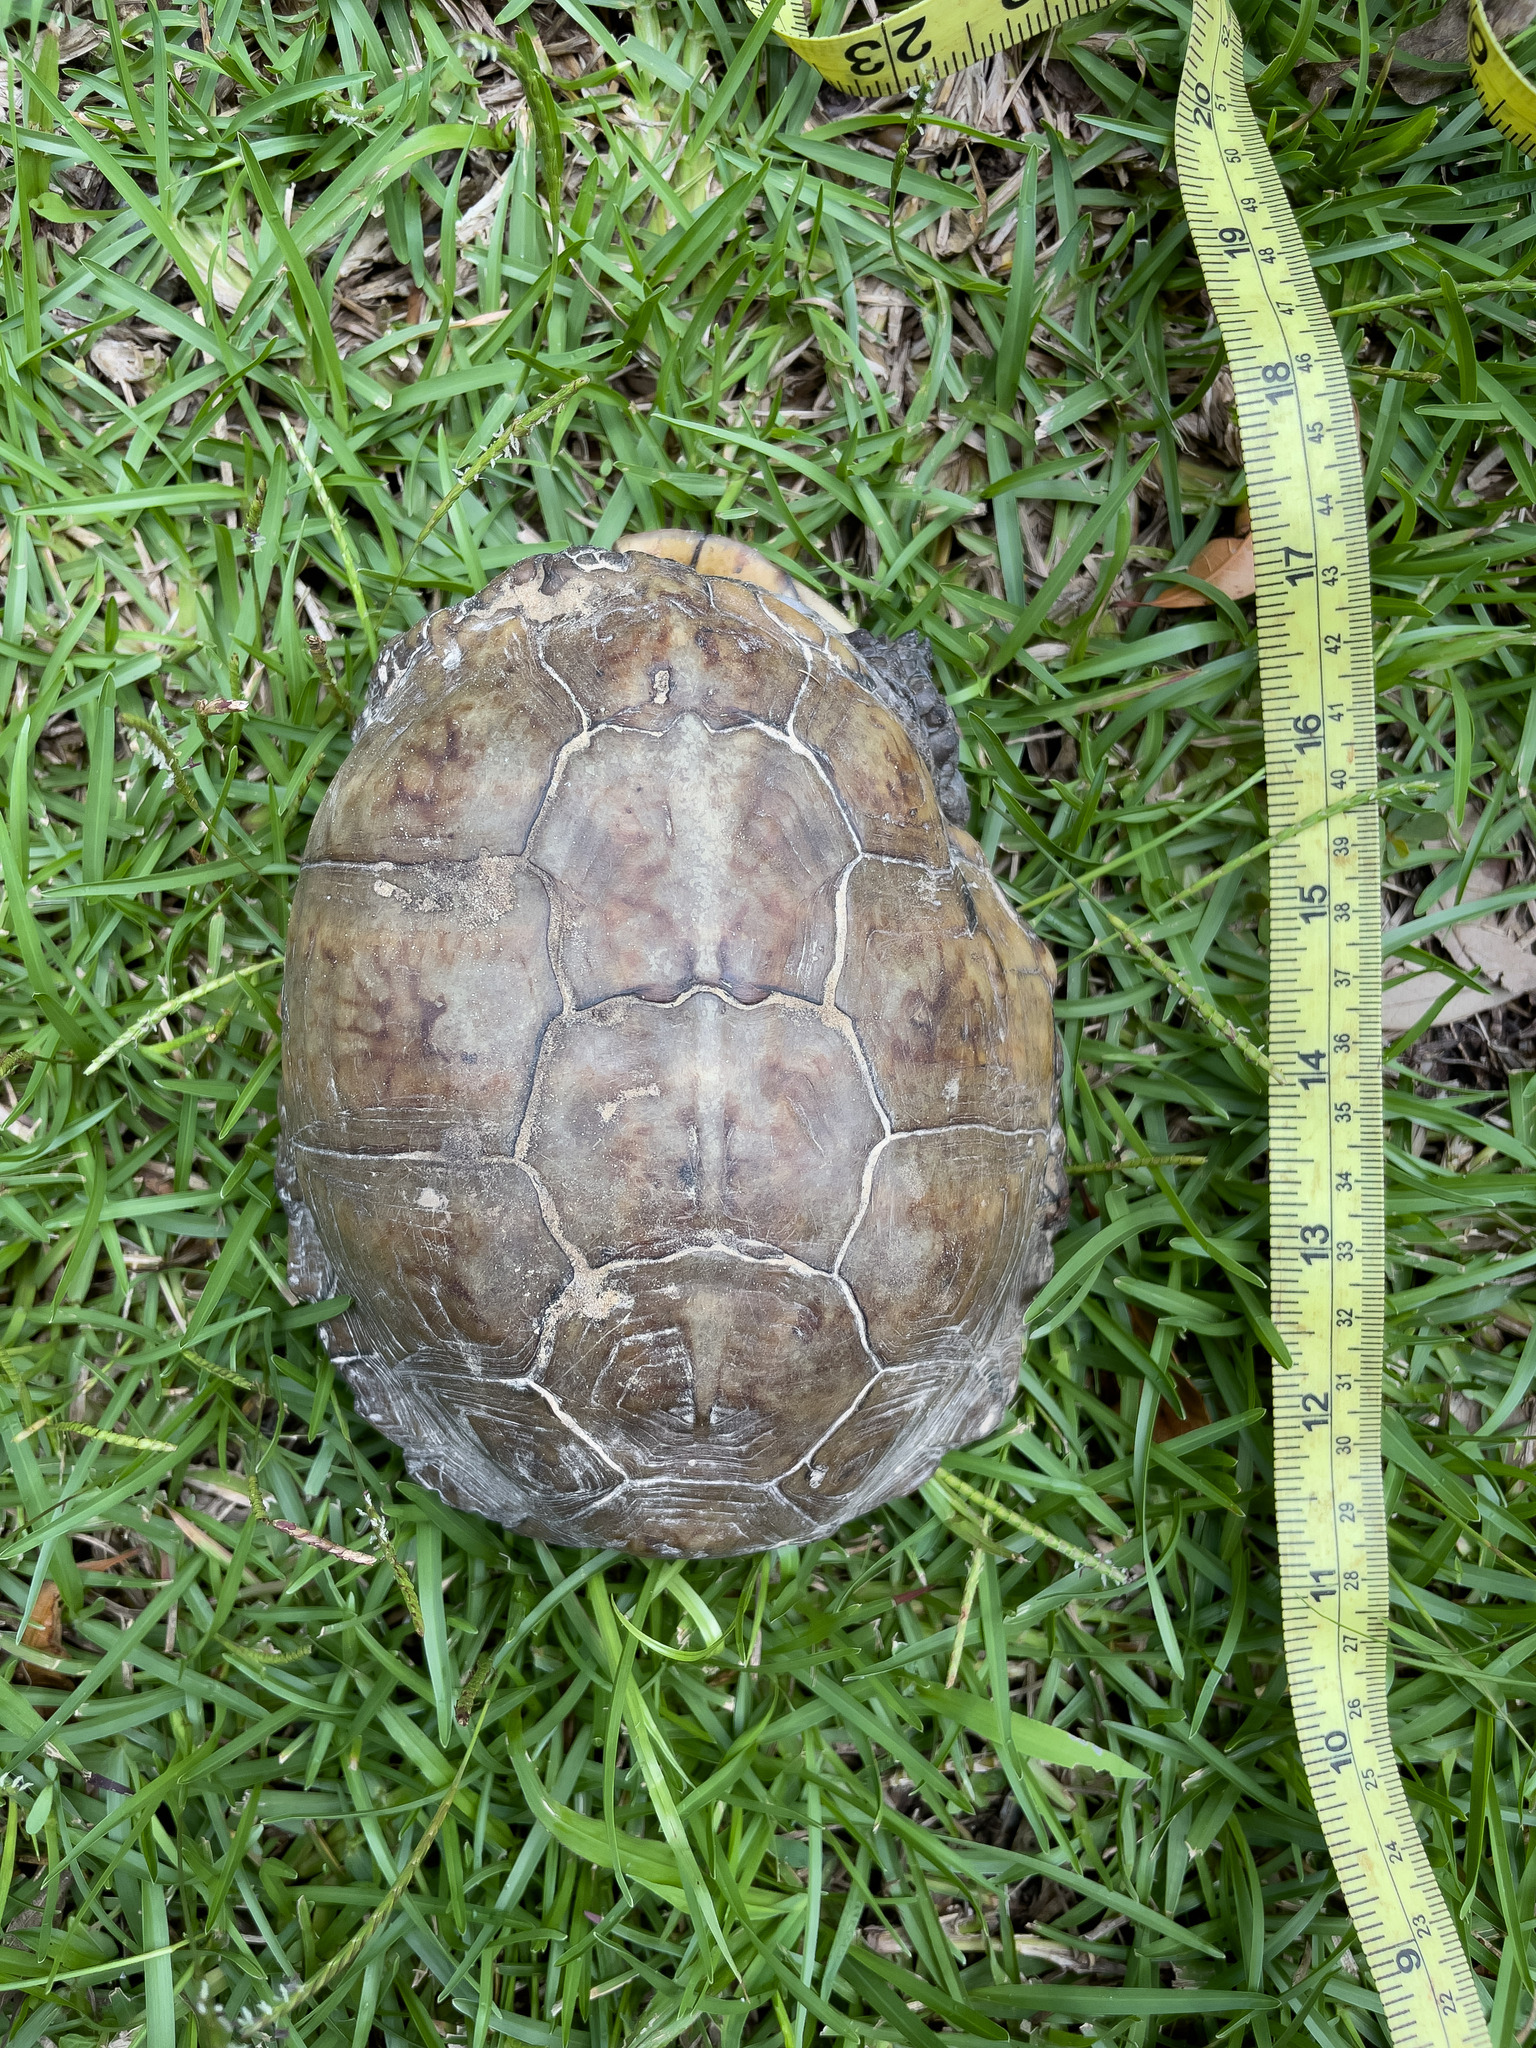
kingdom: Animalia
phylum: Chordata
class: Testudines
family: Emydidae
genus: Terrapene
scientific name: Terrapene carolina
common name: Common box turtle
